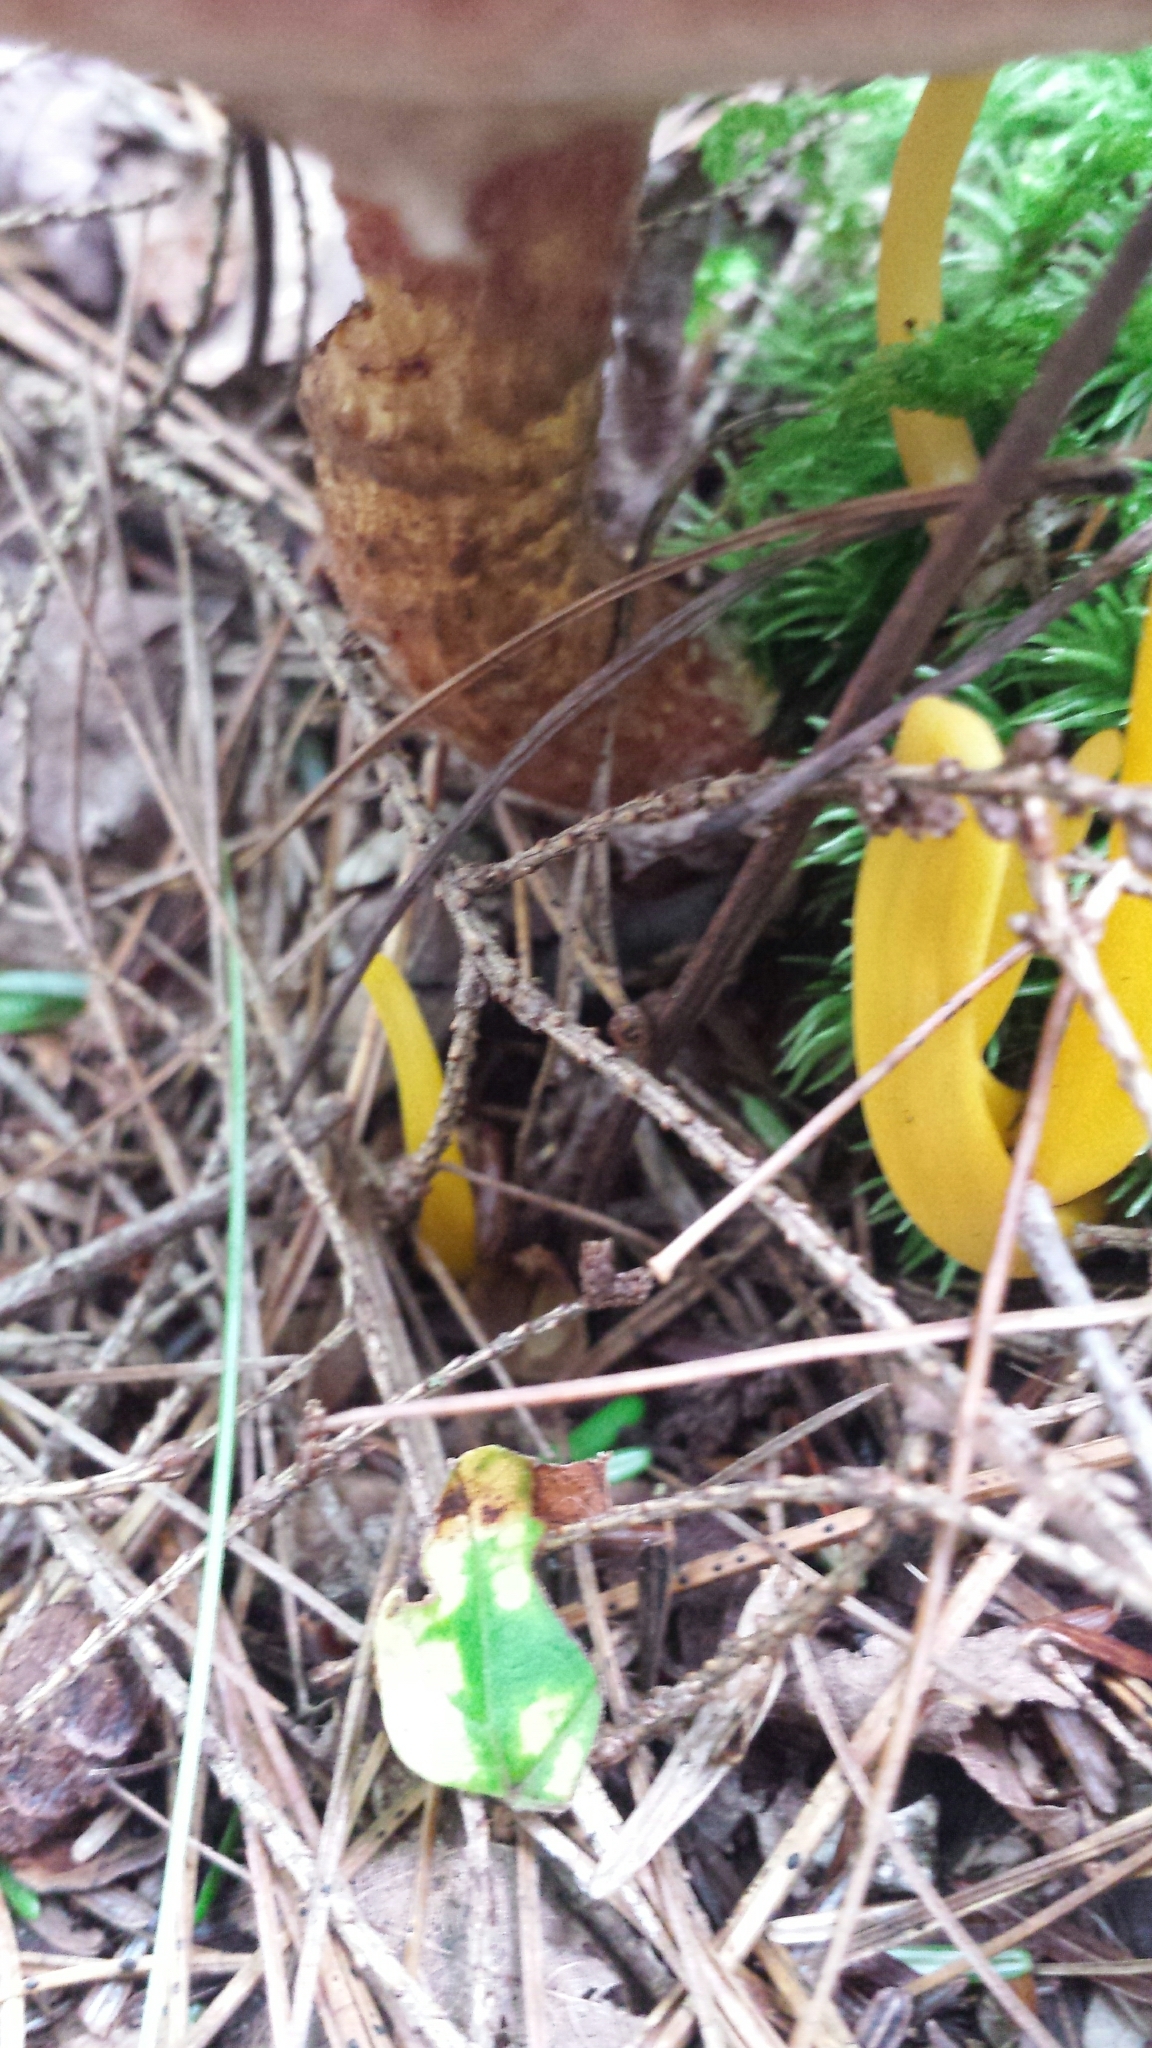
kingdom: Fungi
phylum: Basidiomycota
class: Agaricomycetes
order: Boletales
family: Suillaceae
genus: Suillus
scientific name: Suillus spraguei
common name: Painted suillus
